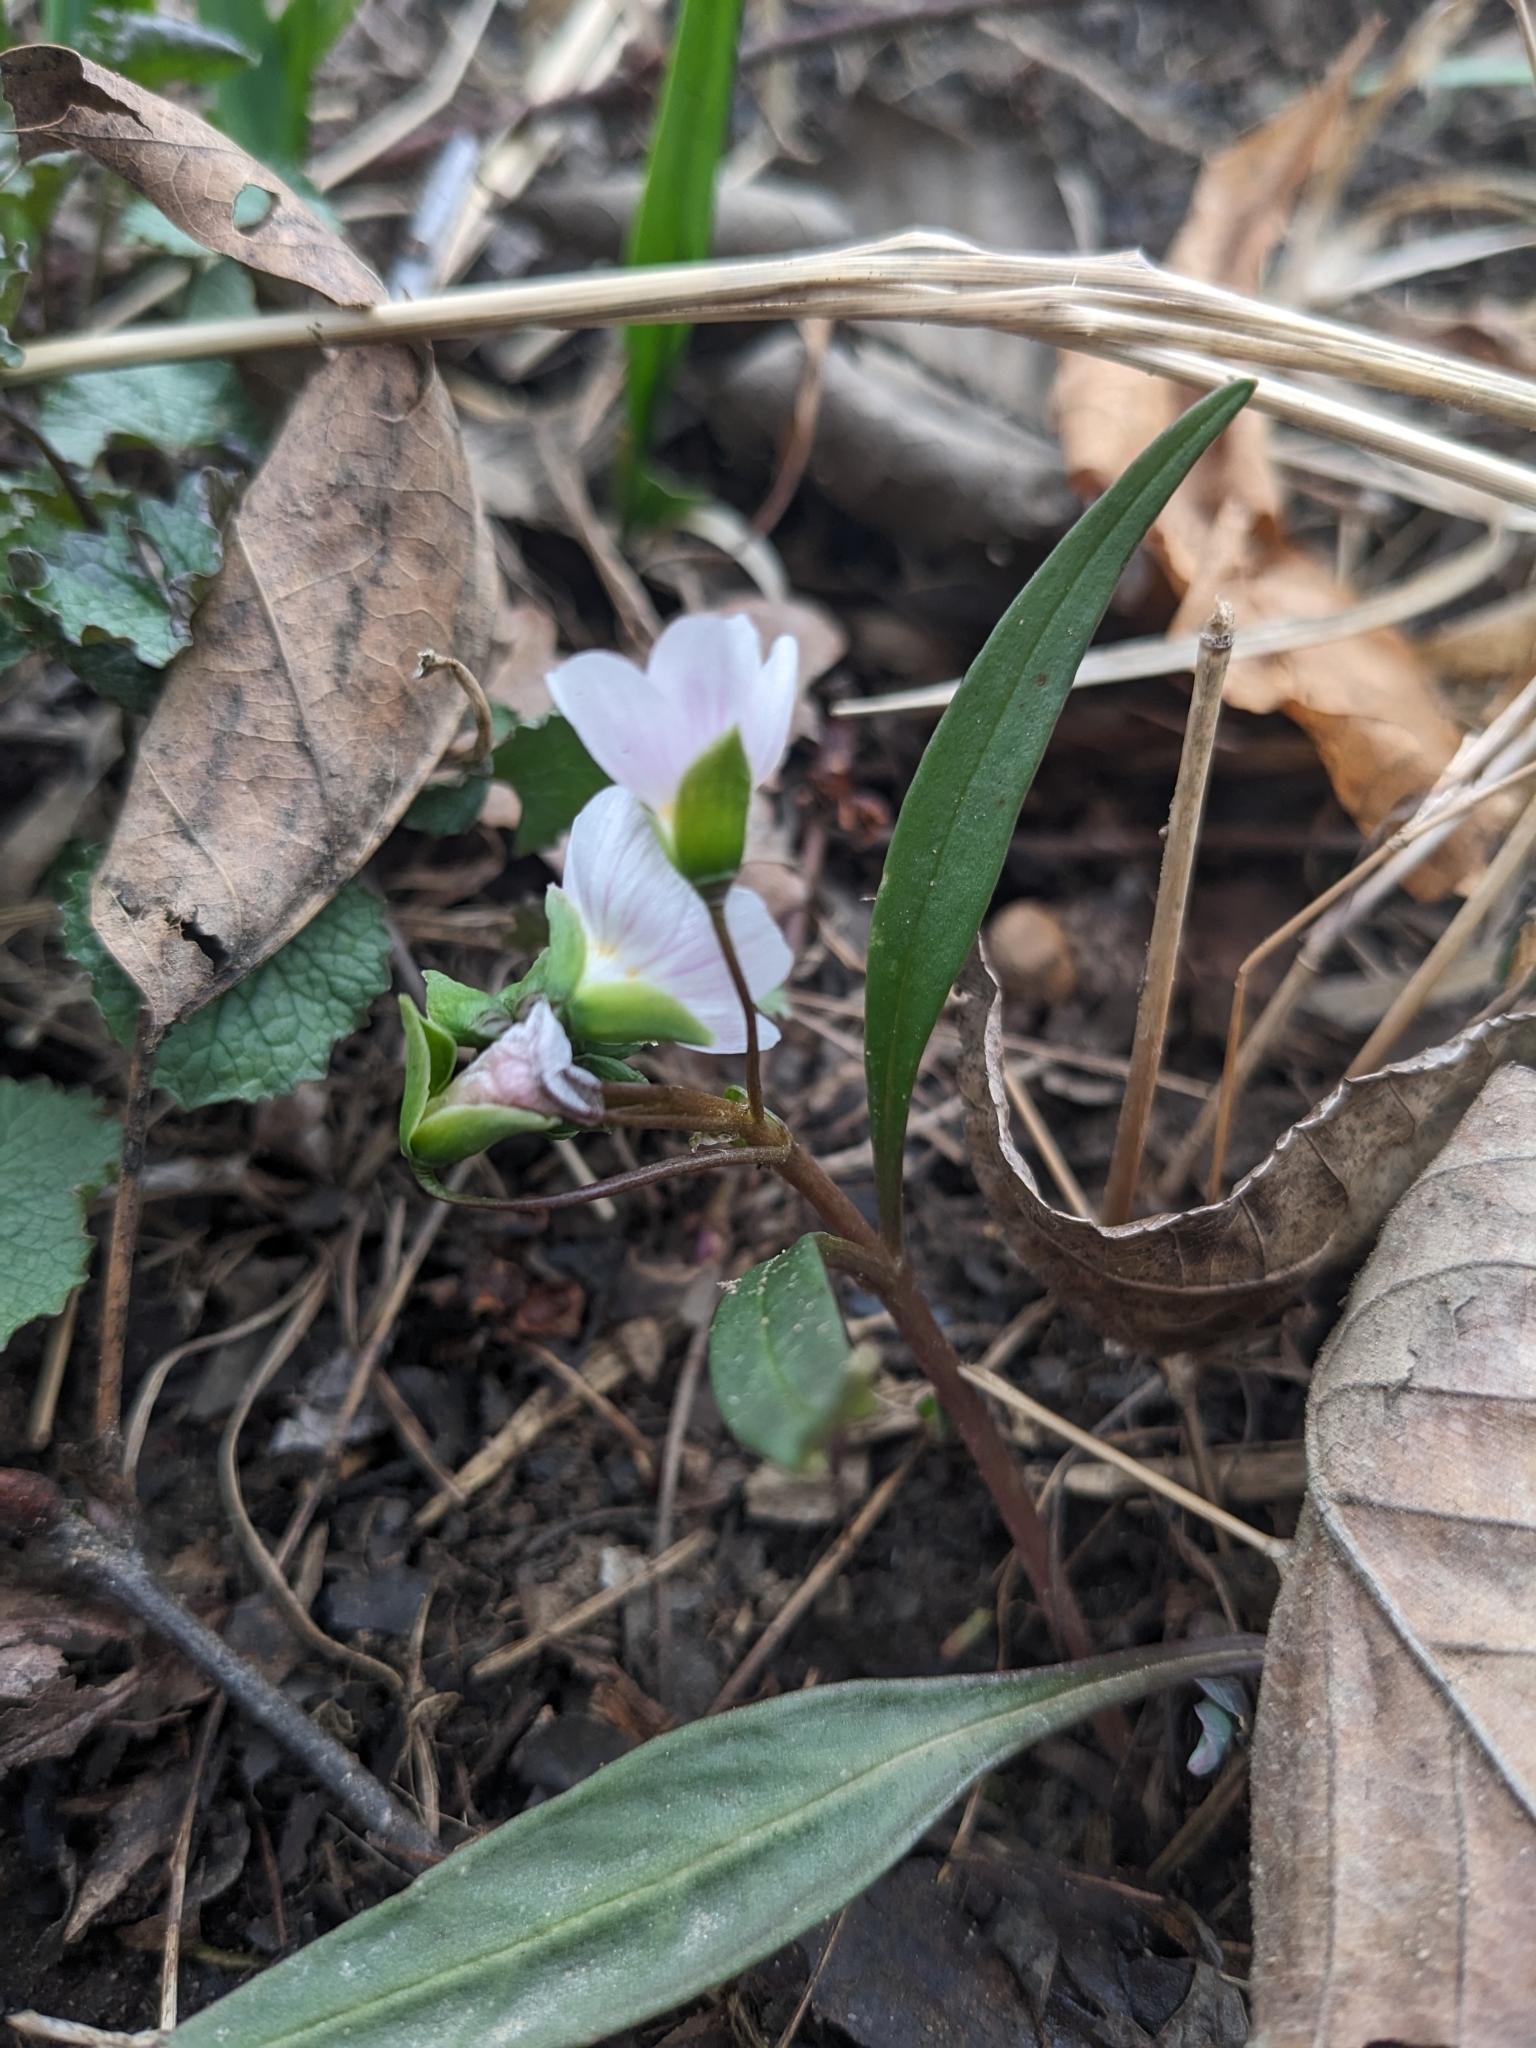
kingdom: Plantae
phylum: Tracheophyta
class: Magnoliopsida
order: Caryophyllales
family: Montiaceae
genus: Claytonia
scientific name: Claytonia virginica
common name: Virginia springbeauty
